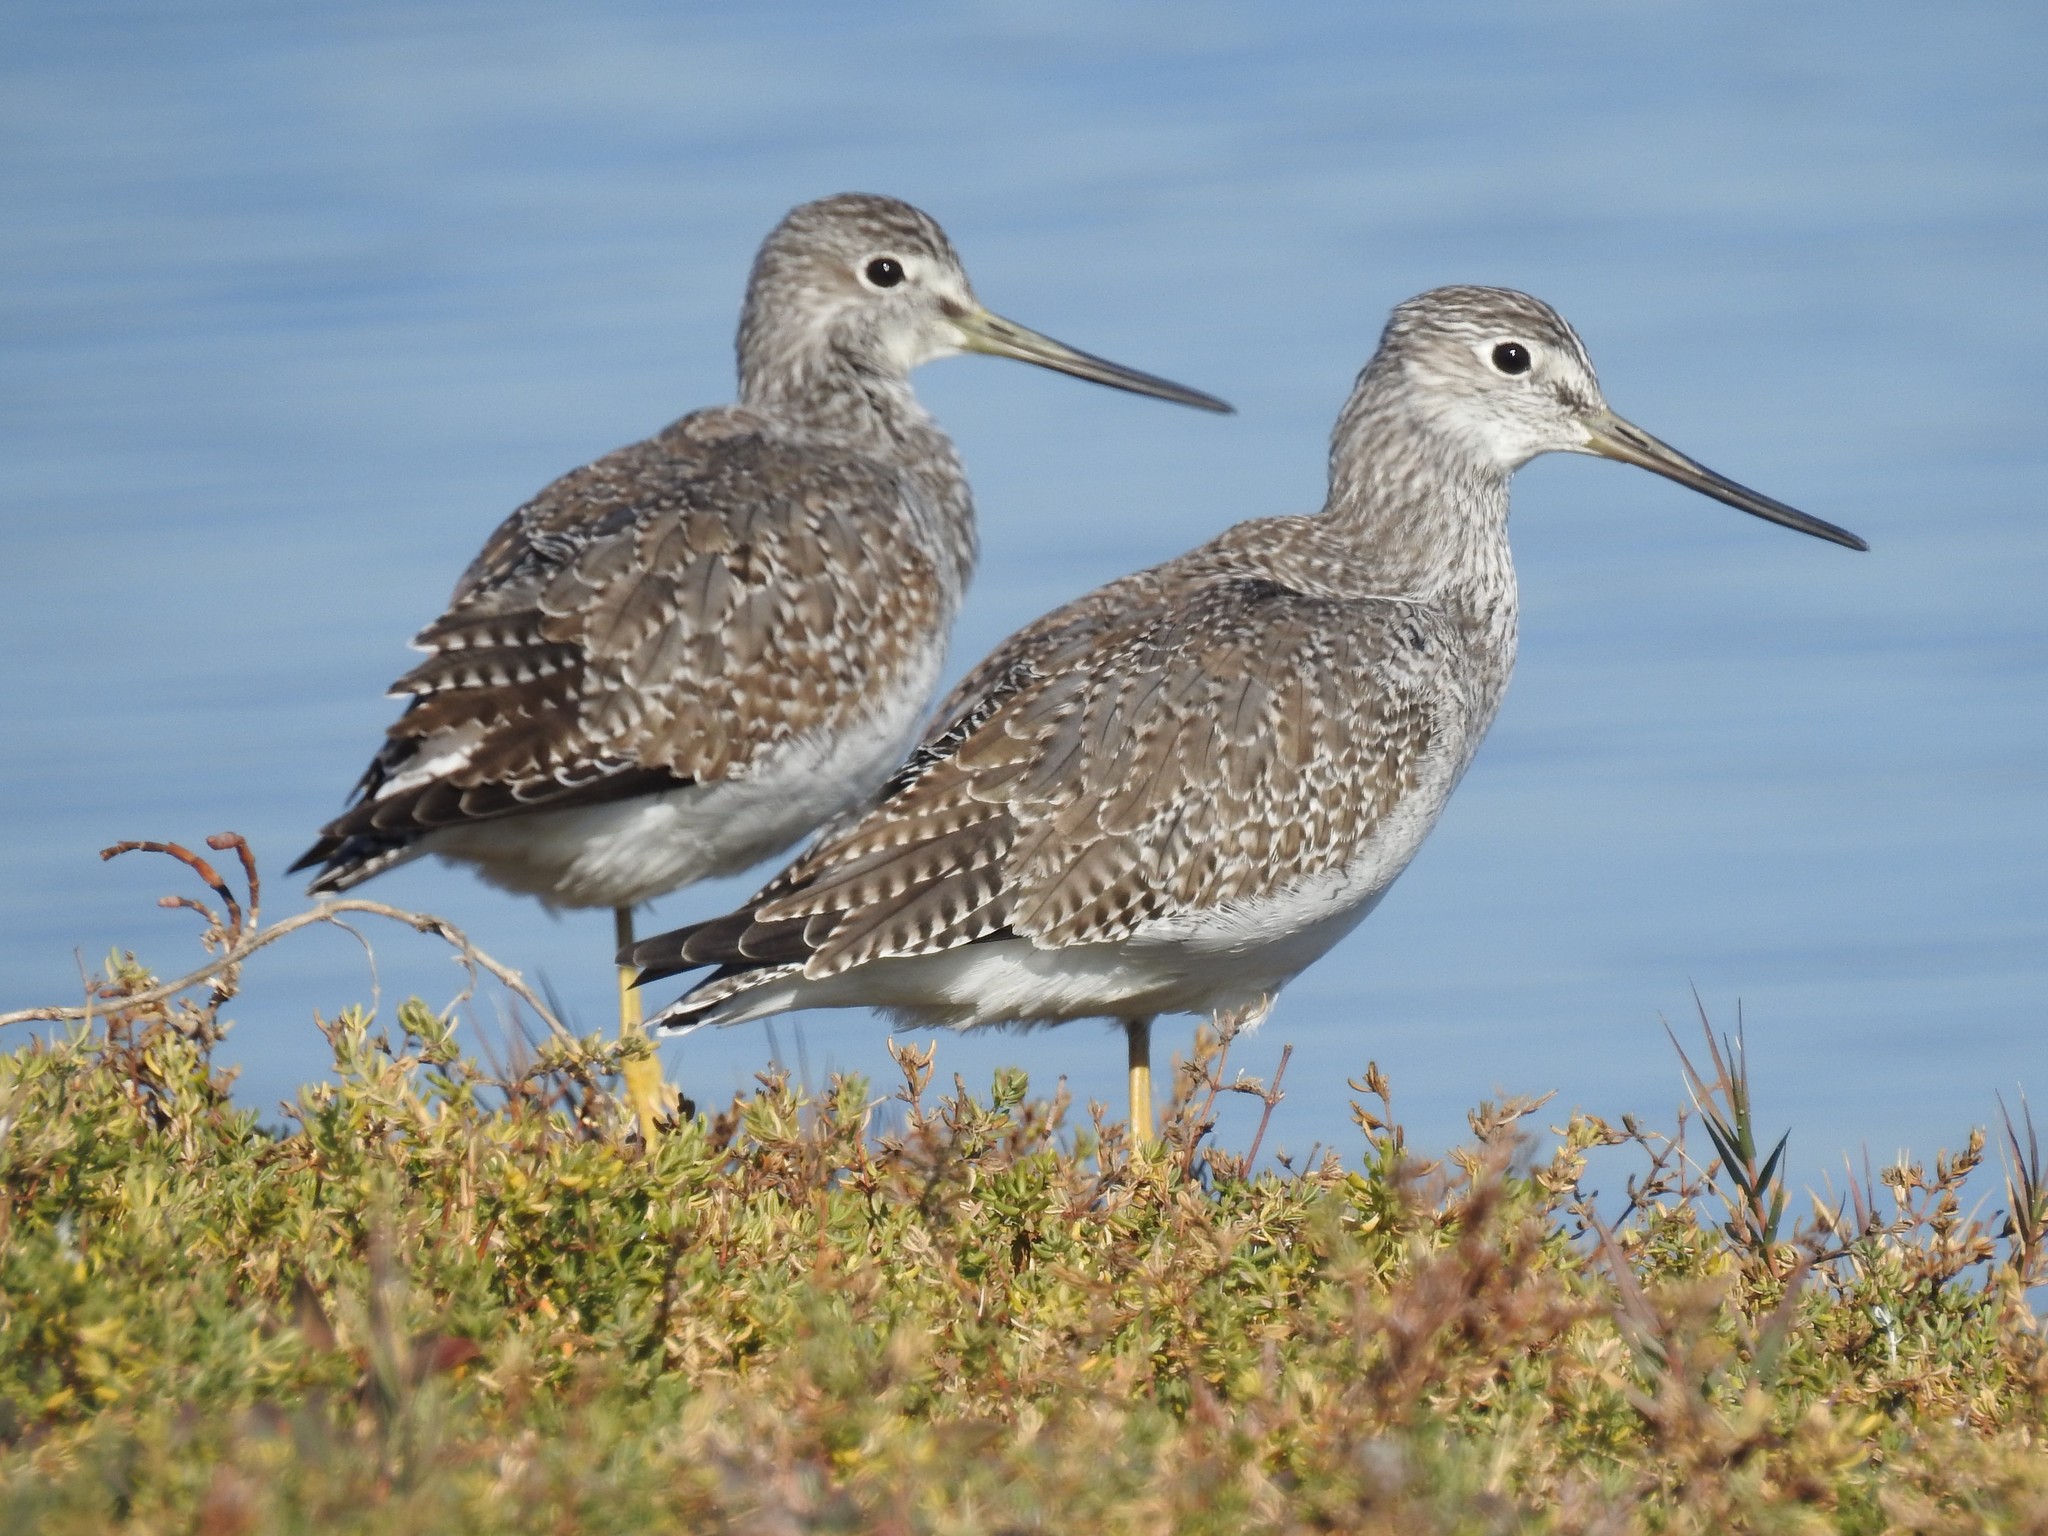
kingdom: Animalia
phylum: Chordata
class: Aves
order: Charadriiformes
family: Scolopacidae
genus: Tringa
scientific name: Tringa melanoleuca
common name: Greater yellowlegs
